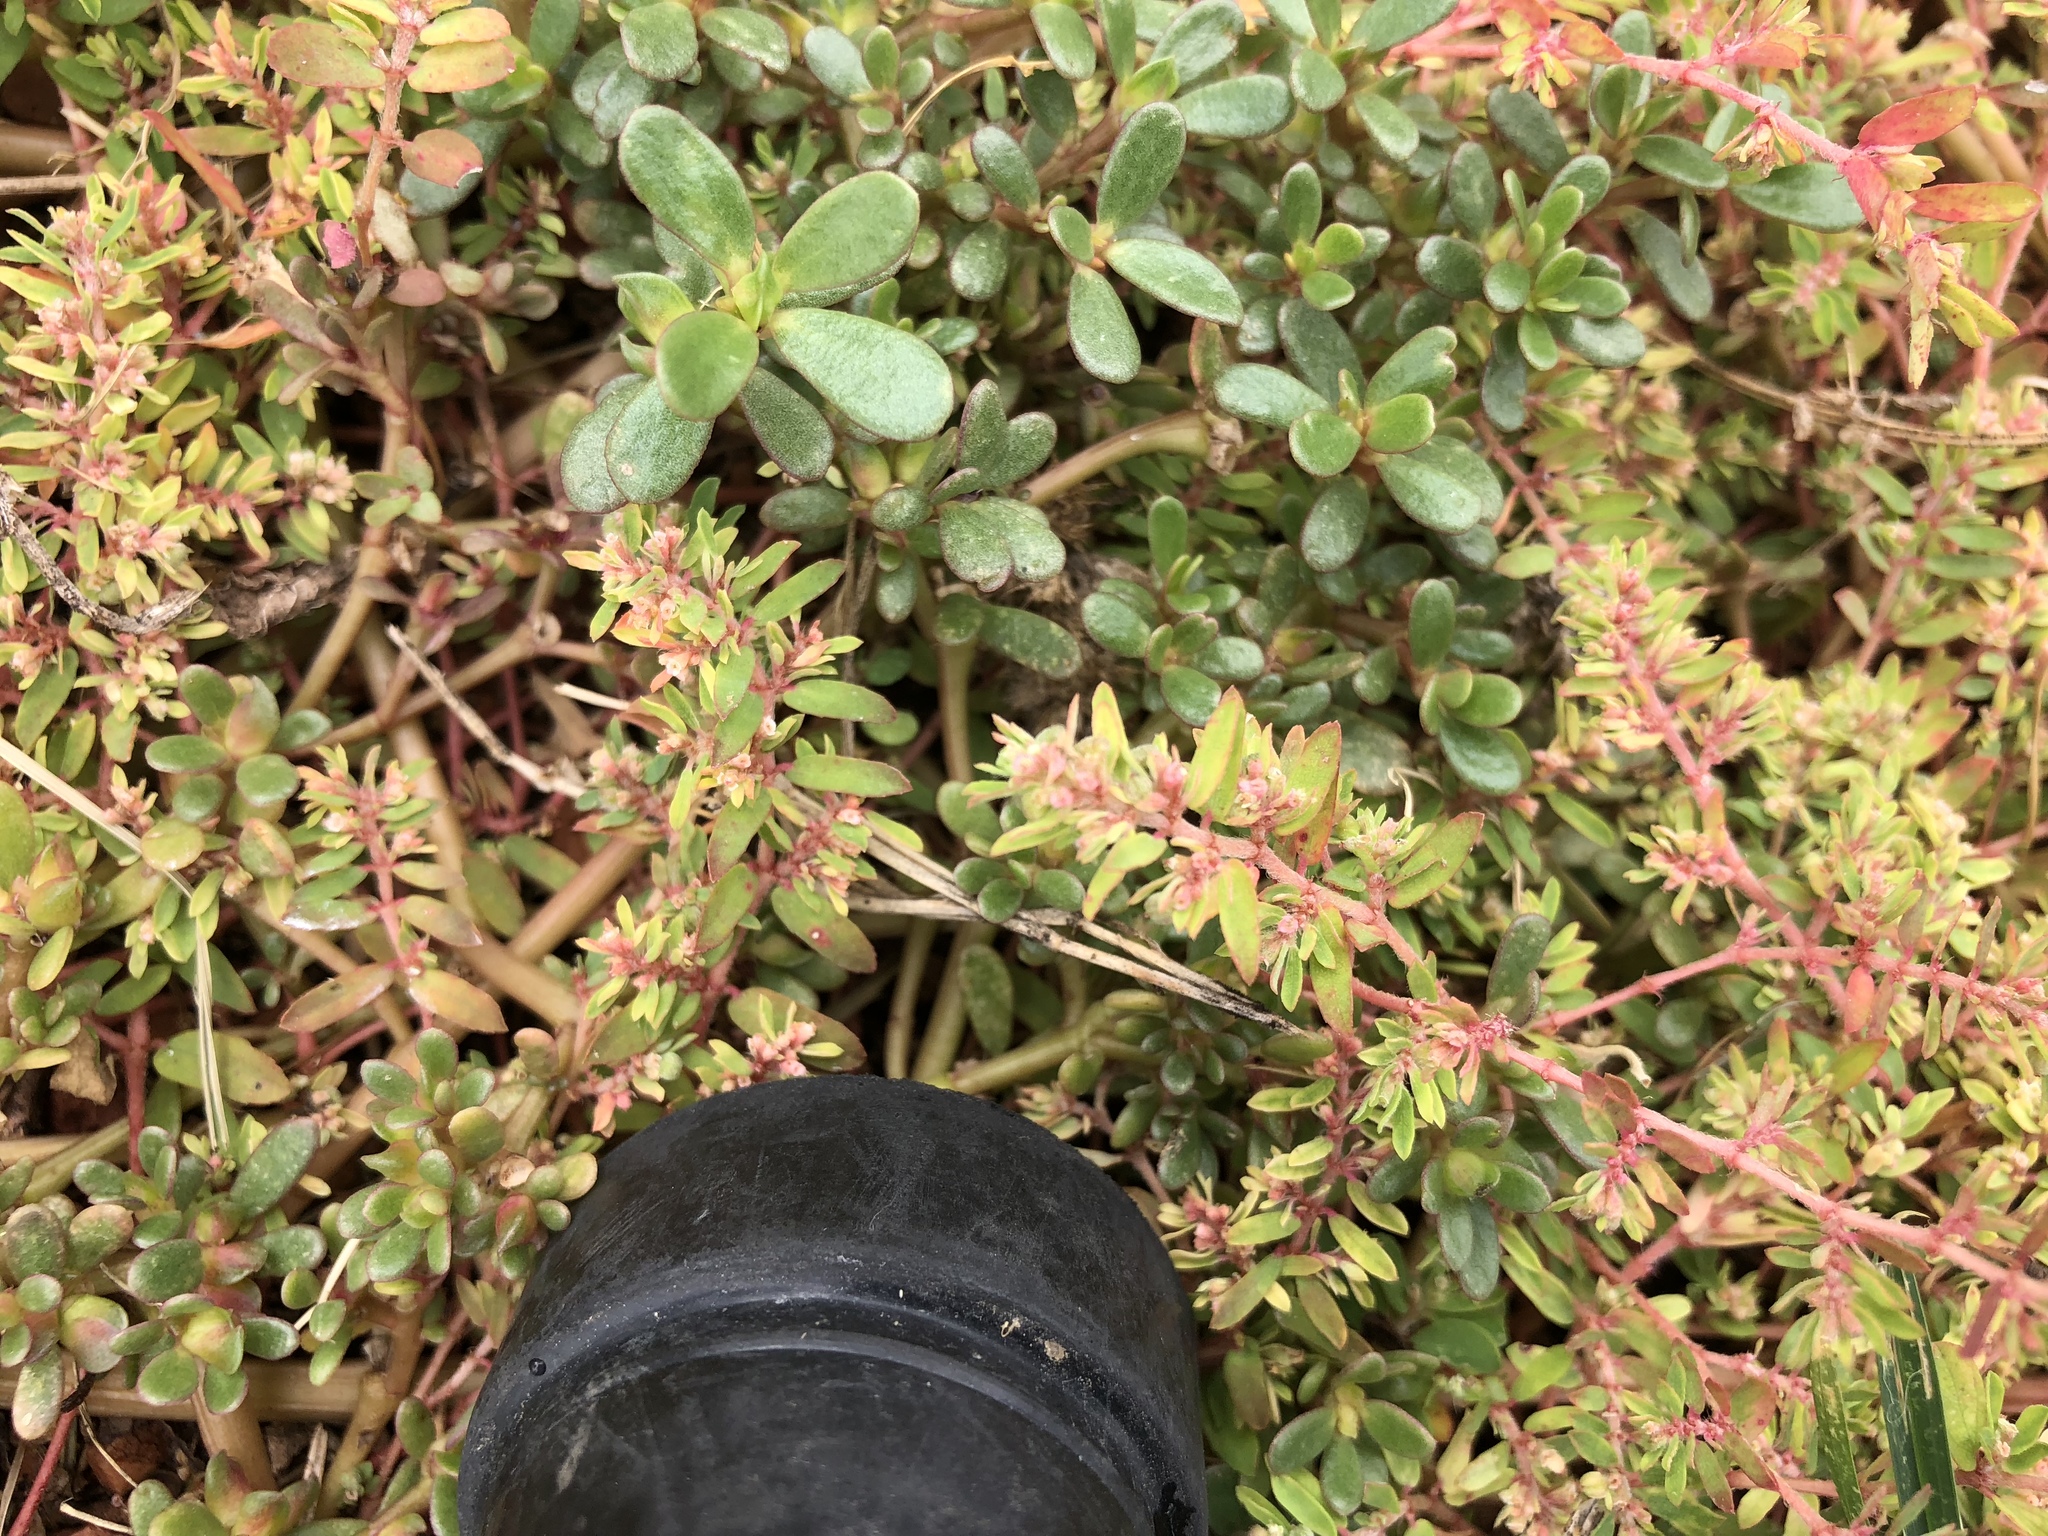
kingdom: Plantae
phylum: Tracheophyta
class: Magnoliopsida
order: Malpighiales
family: Euphorbiaceae
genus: Euphorbia
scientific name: Euphorbia maculata
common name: Spotted spurge
